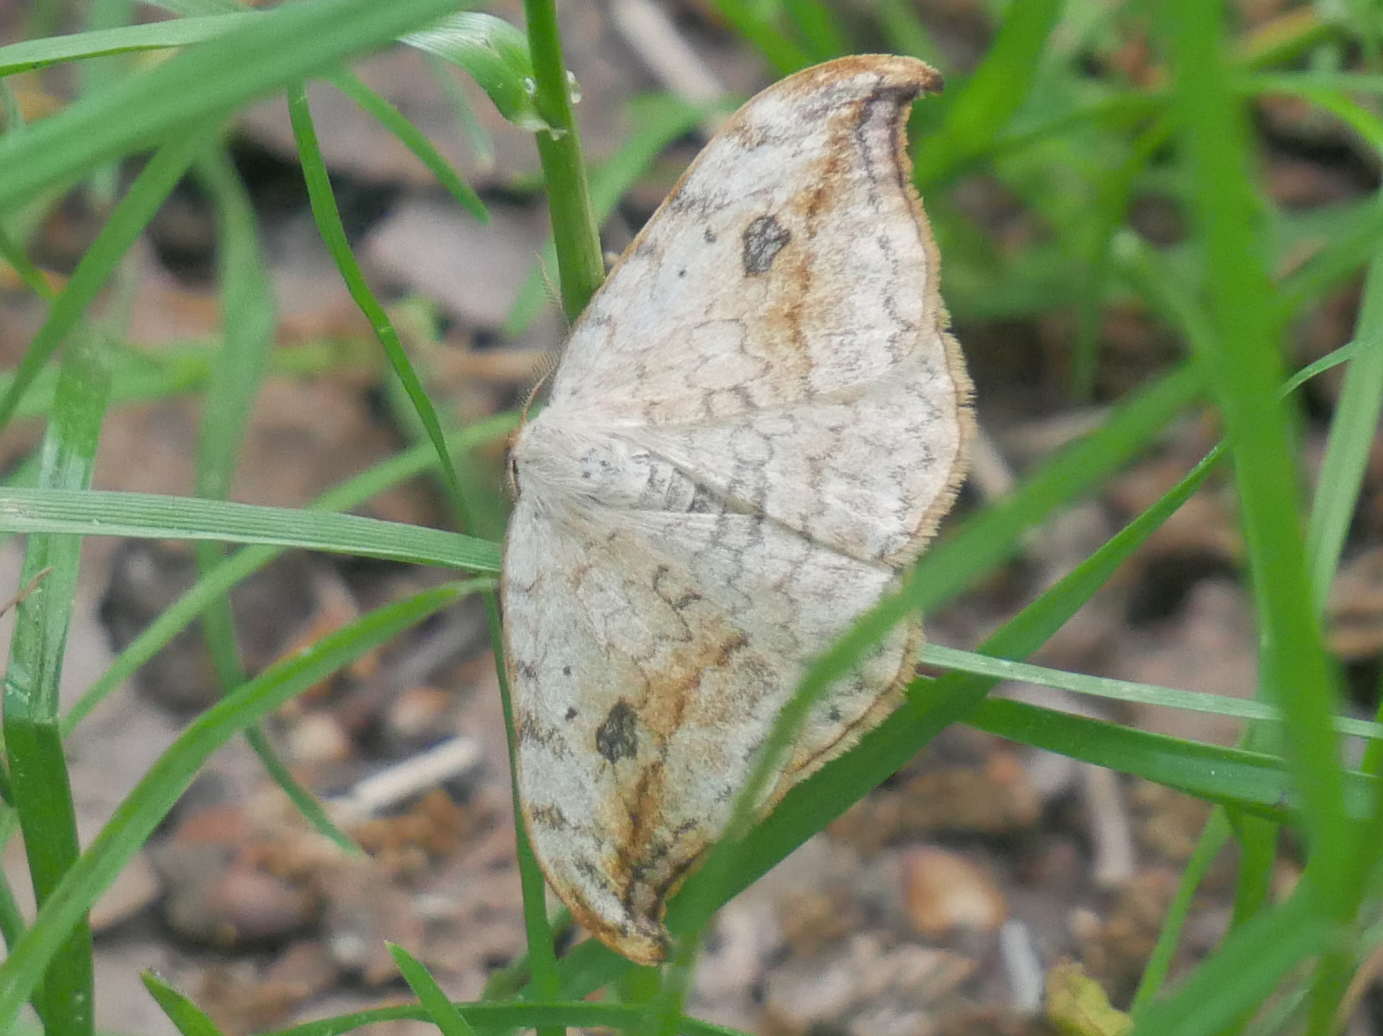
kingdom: Animalia
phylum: Arthropoda
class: Insecta
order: Lepidoptera
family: Drepanidae
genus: Drepana
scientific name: Drepana falcataria
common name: Pebble hook-tip
